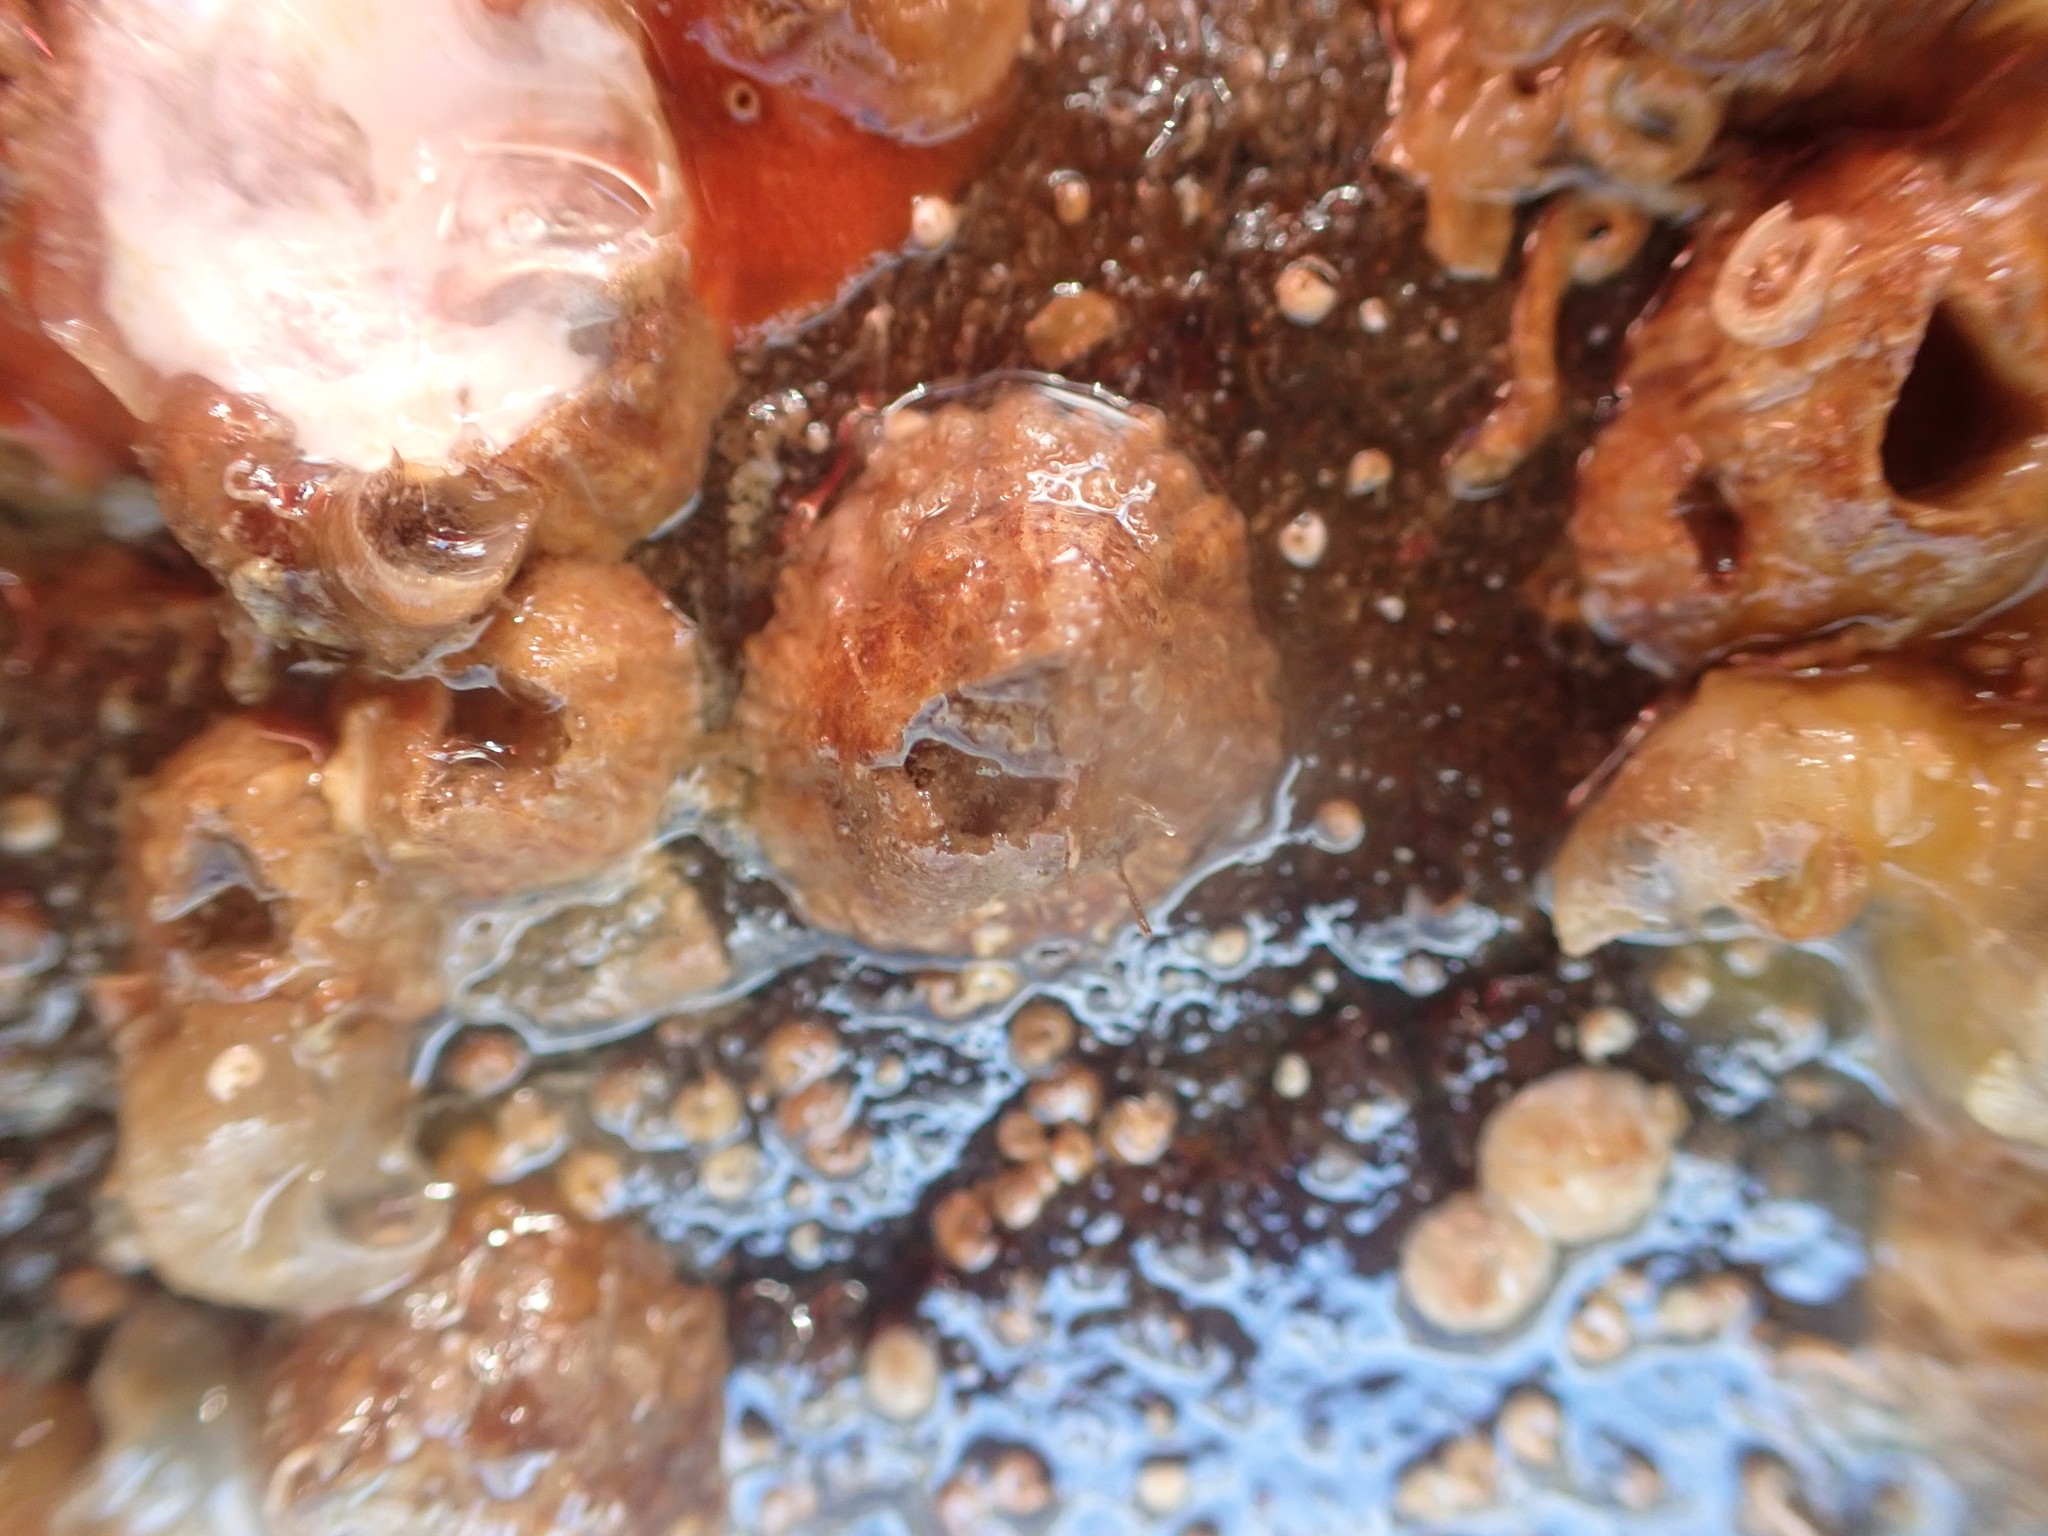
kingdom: Animalia
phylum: Arthropoda
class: Maxillopoda
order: Sessilia
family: Balanidae
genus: Balanus
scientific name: Balanus trigonus
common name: Triangle barnacle
